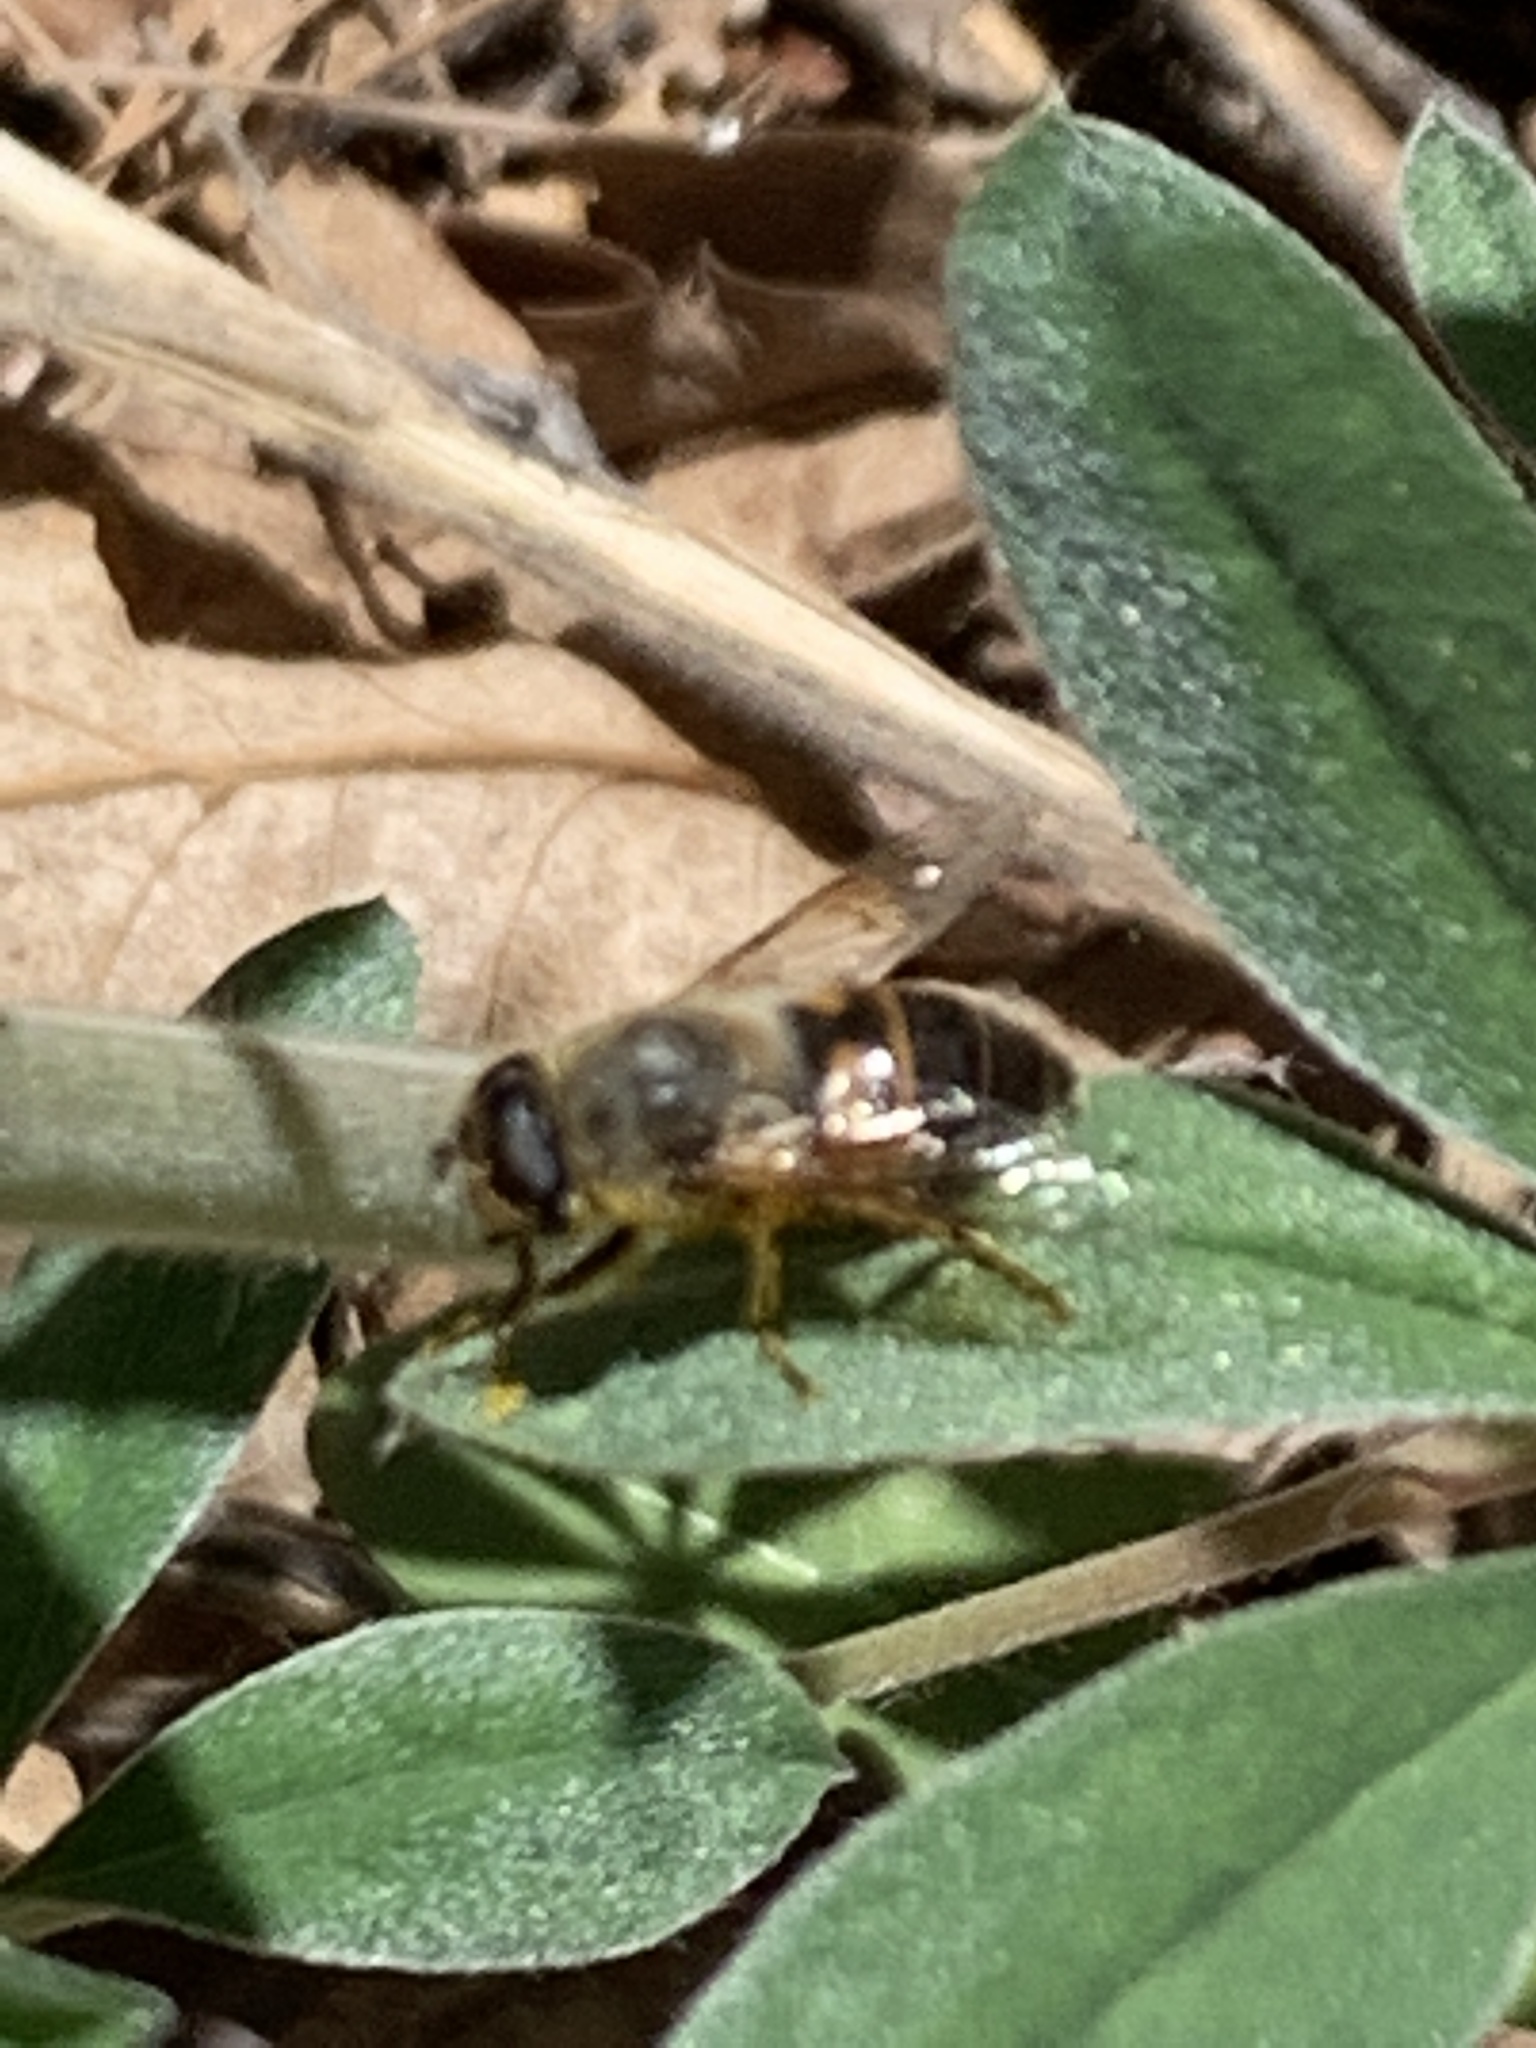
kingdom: Animalia
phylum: Arthropoda
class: Insecta
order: Diptera
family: Syrphidae
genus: Eristalis
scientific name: Eristalis tenax
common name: Drone fly
